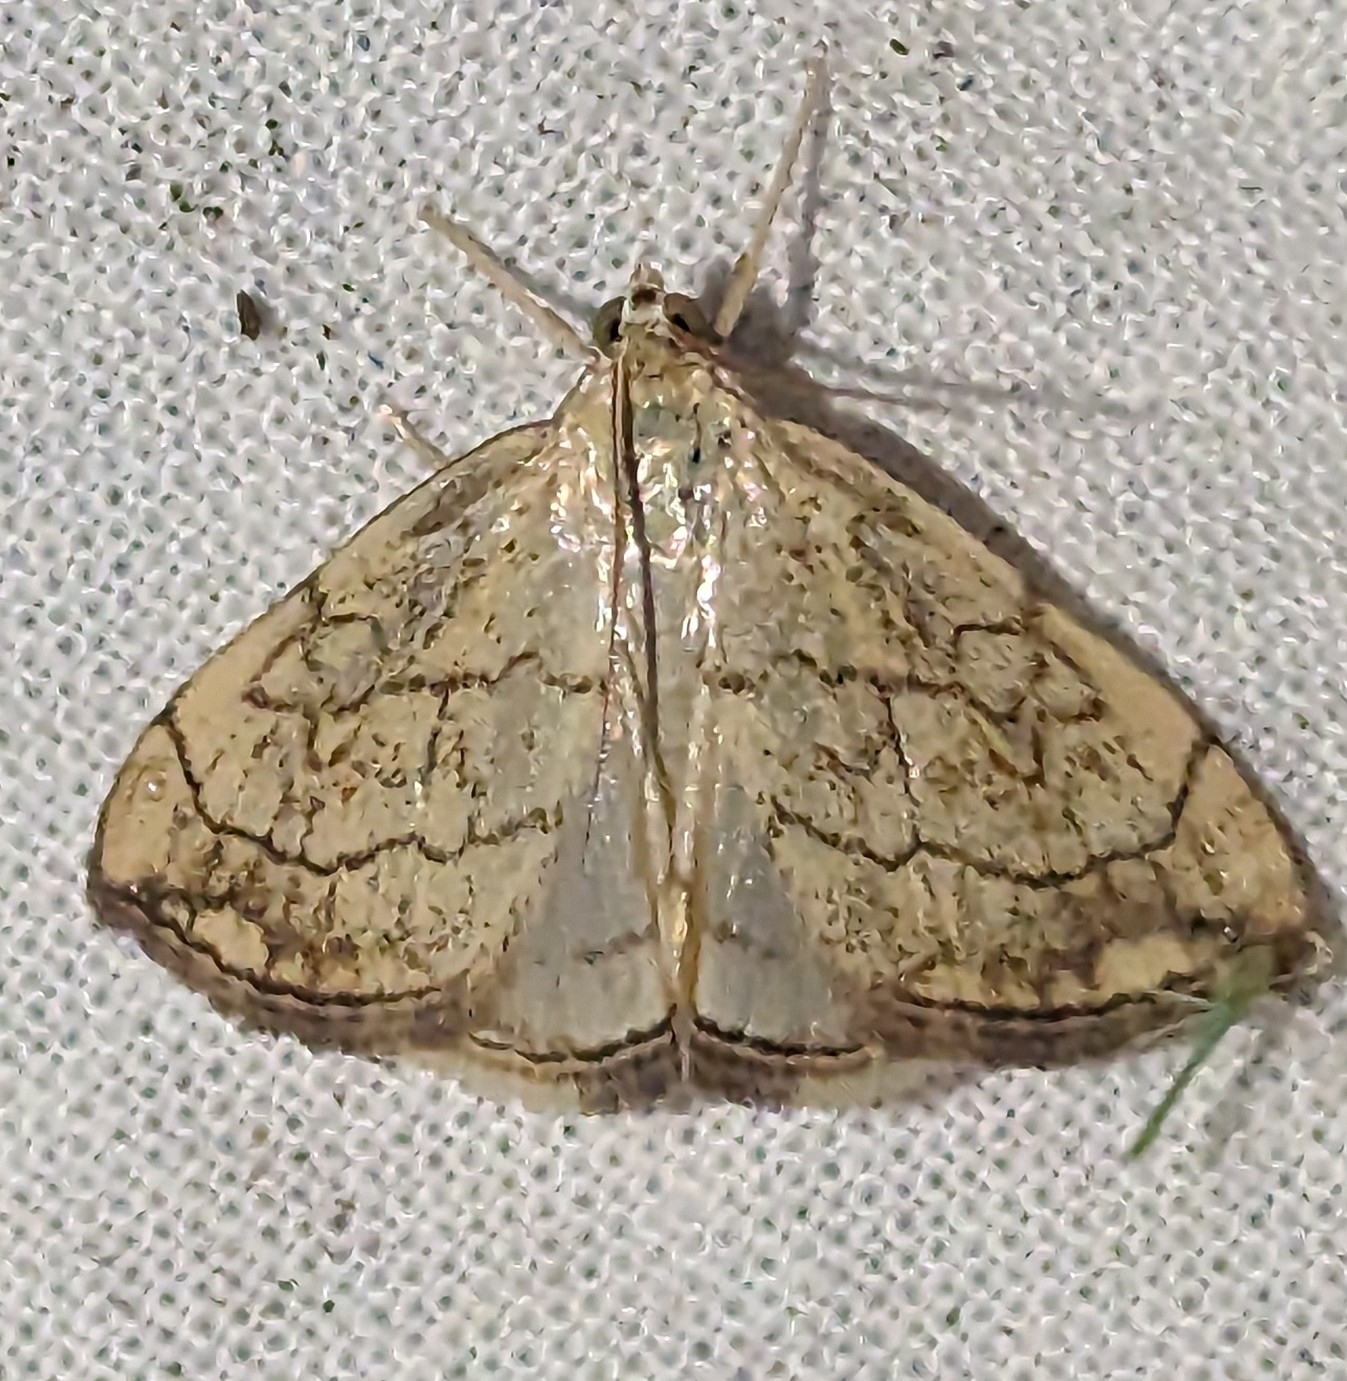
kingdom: Animalia
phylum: Arthropoda
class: Insecta
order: Lepidoptera
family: Crambidae
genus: Evergestis
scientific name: Evergestis pallidata
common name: Chequered pearl
